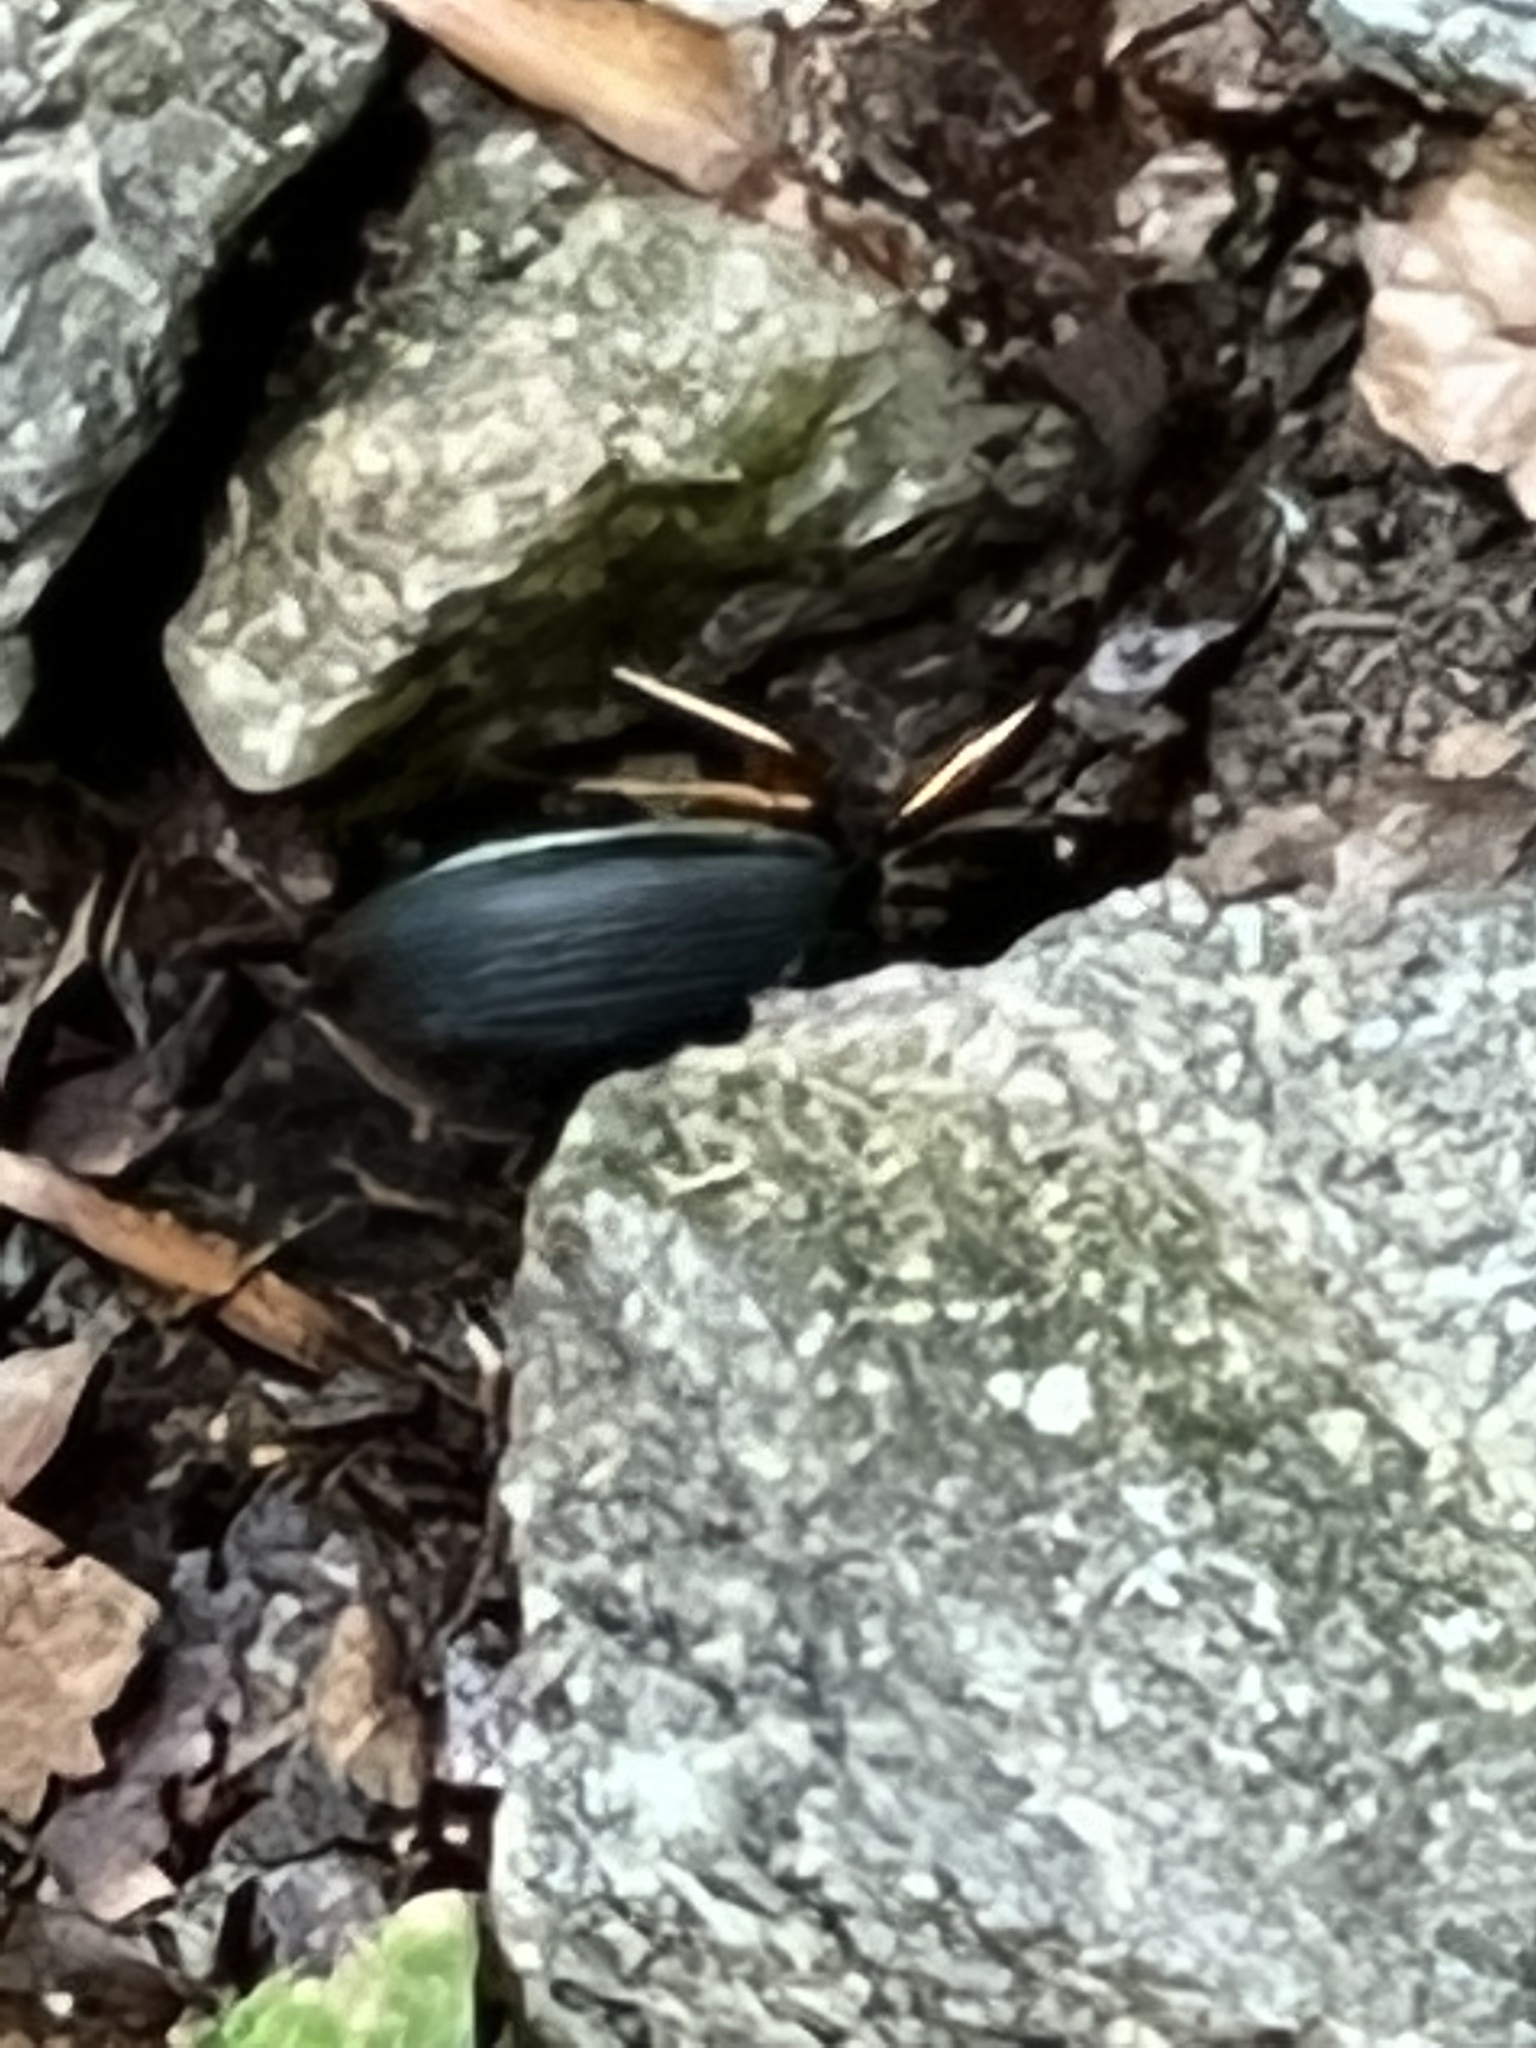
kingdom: Animalia
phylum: Arthropoda
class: Insecta
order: Coleoptera
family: Carabidae
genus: Chlaenius
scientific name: Chlaenius aestivus
